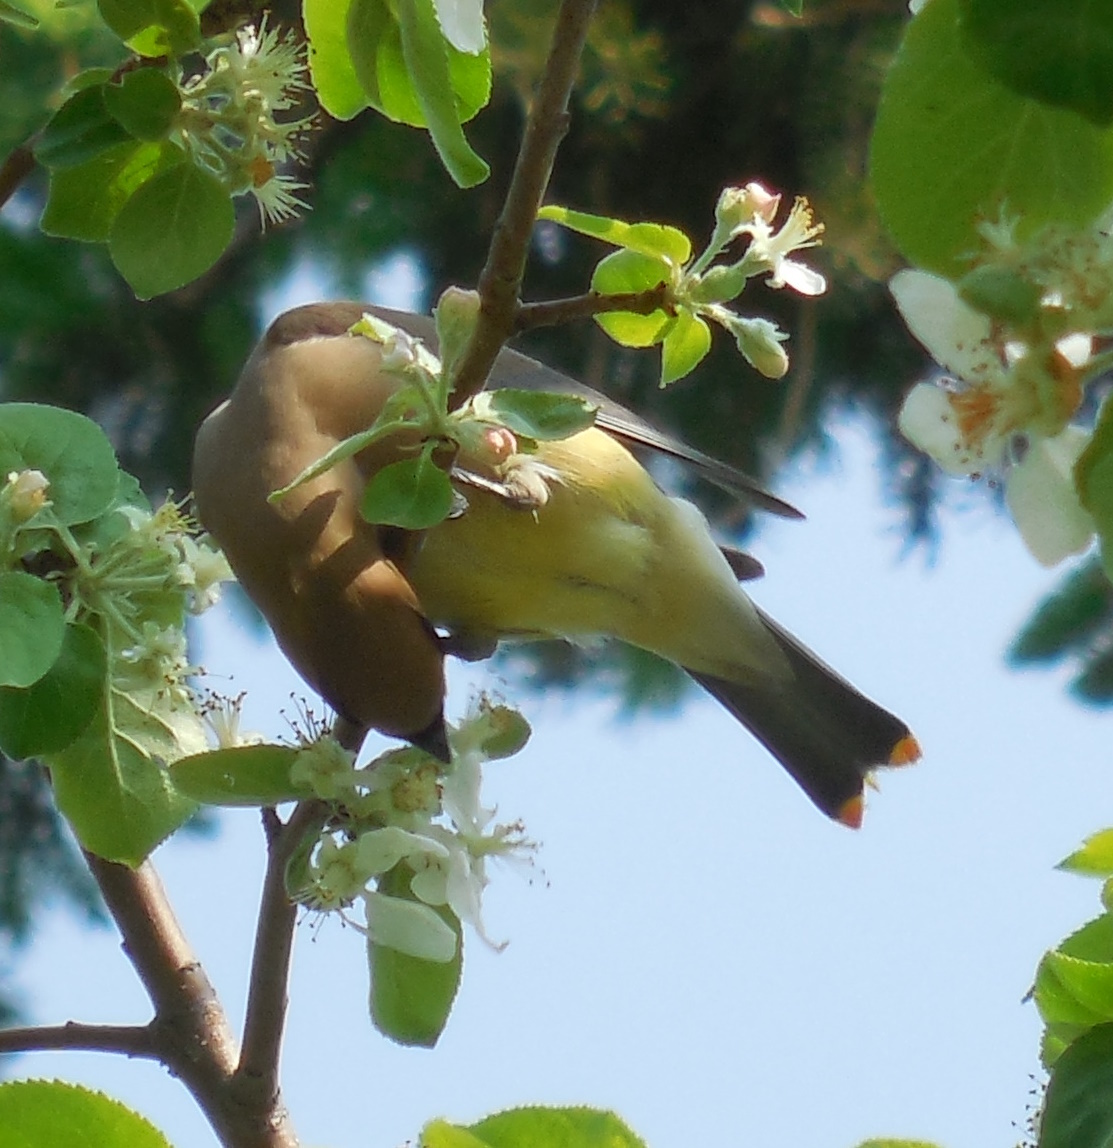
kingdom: Animalia
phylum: Chordata
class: Aves
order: Passeriformes
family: Bombycillidae
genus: Bombycilla
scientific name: Bombycilla cedrorum
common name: Cedar waxwing
